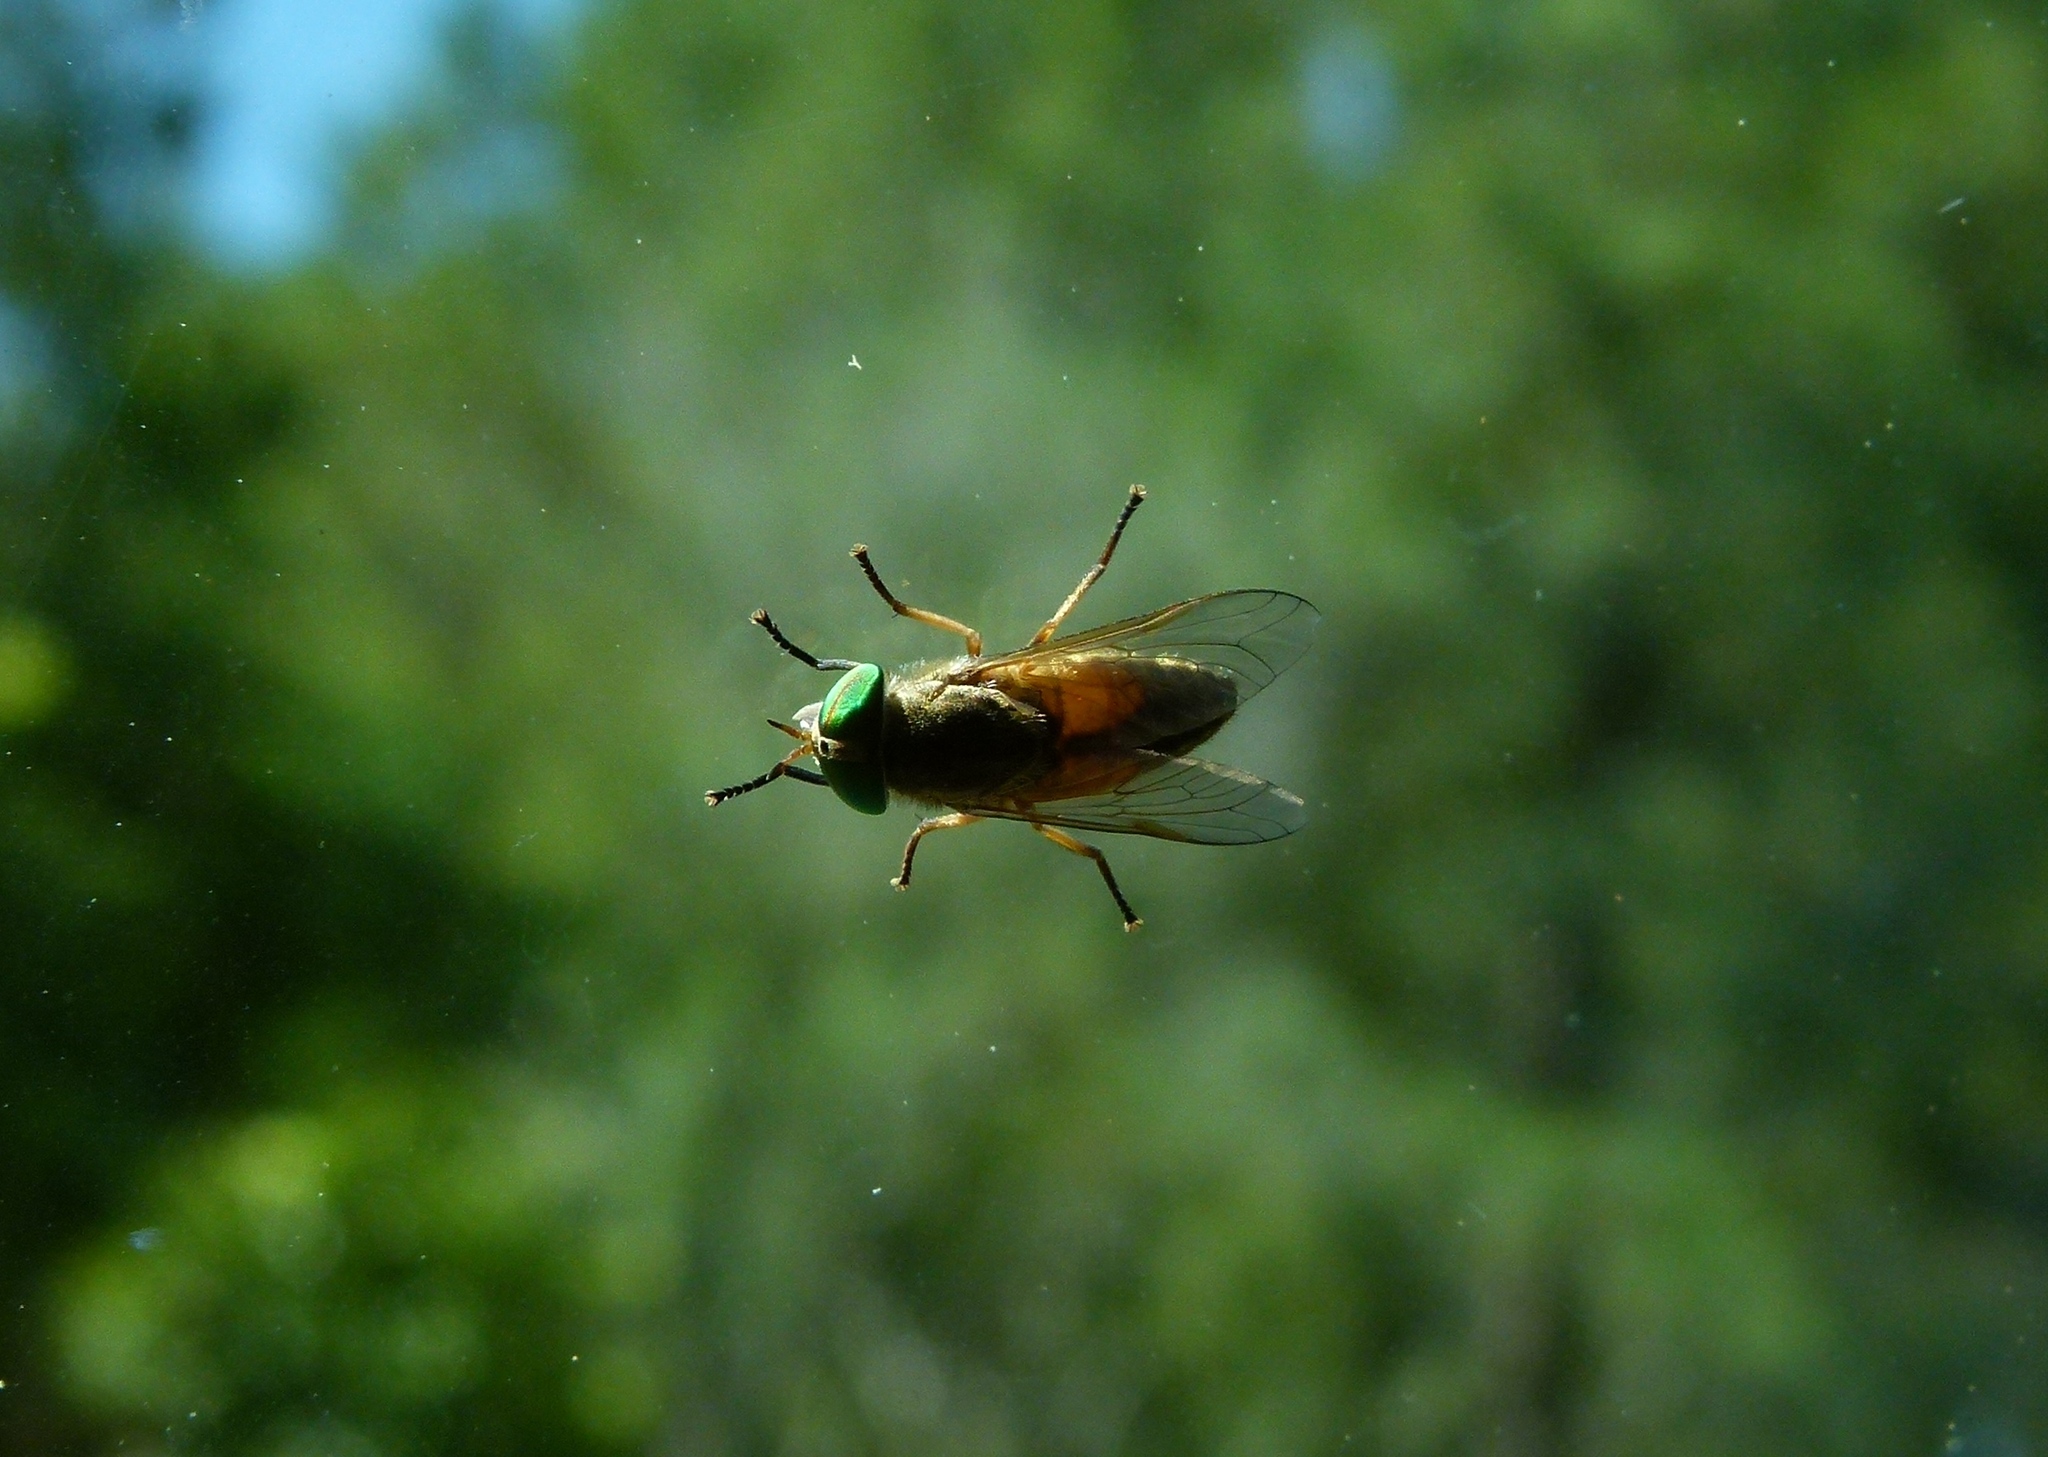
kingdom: Animalia
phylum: Arthropoda
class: Insecta
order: Diptera
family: Tabanidae
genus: Tabanus
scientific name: Tabanus
